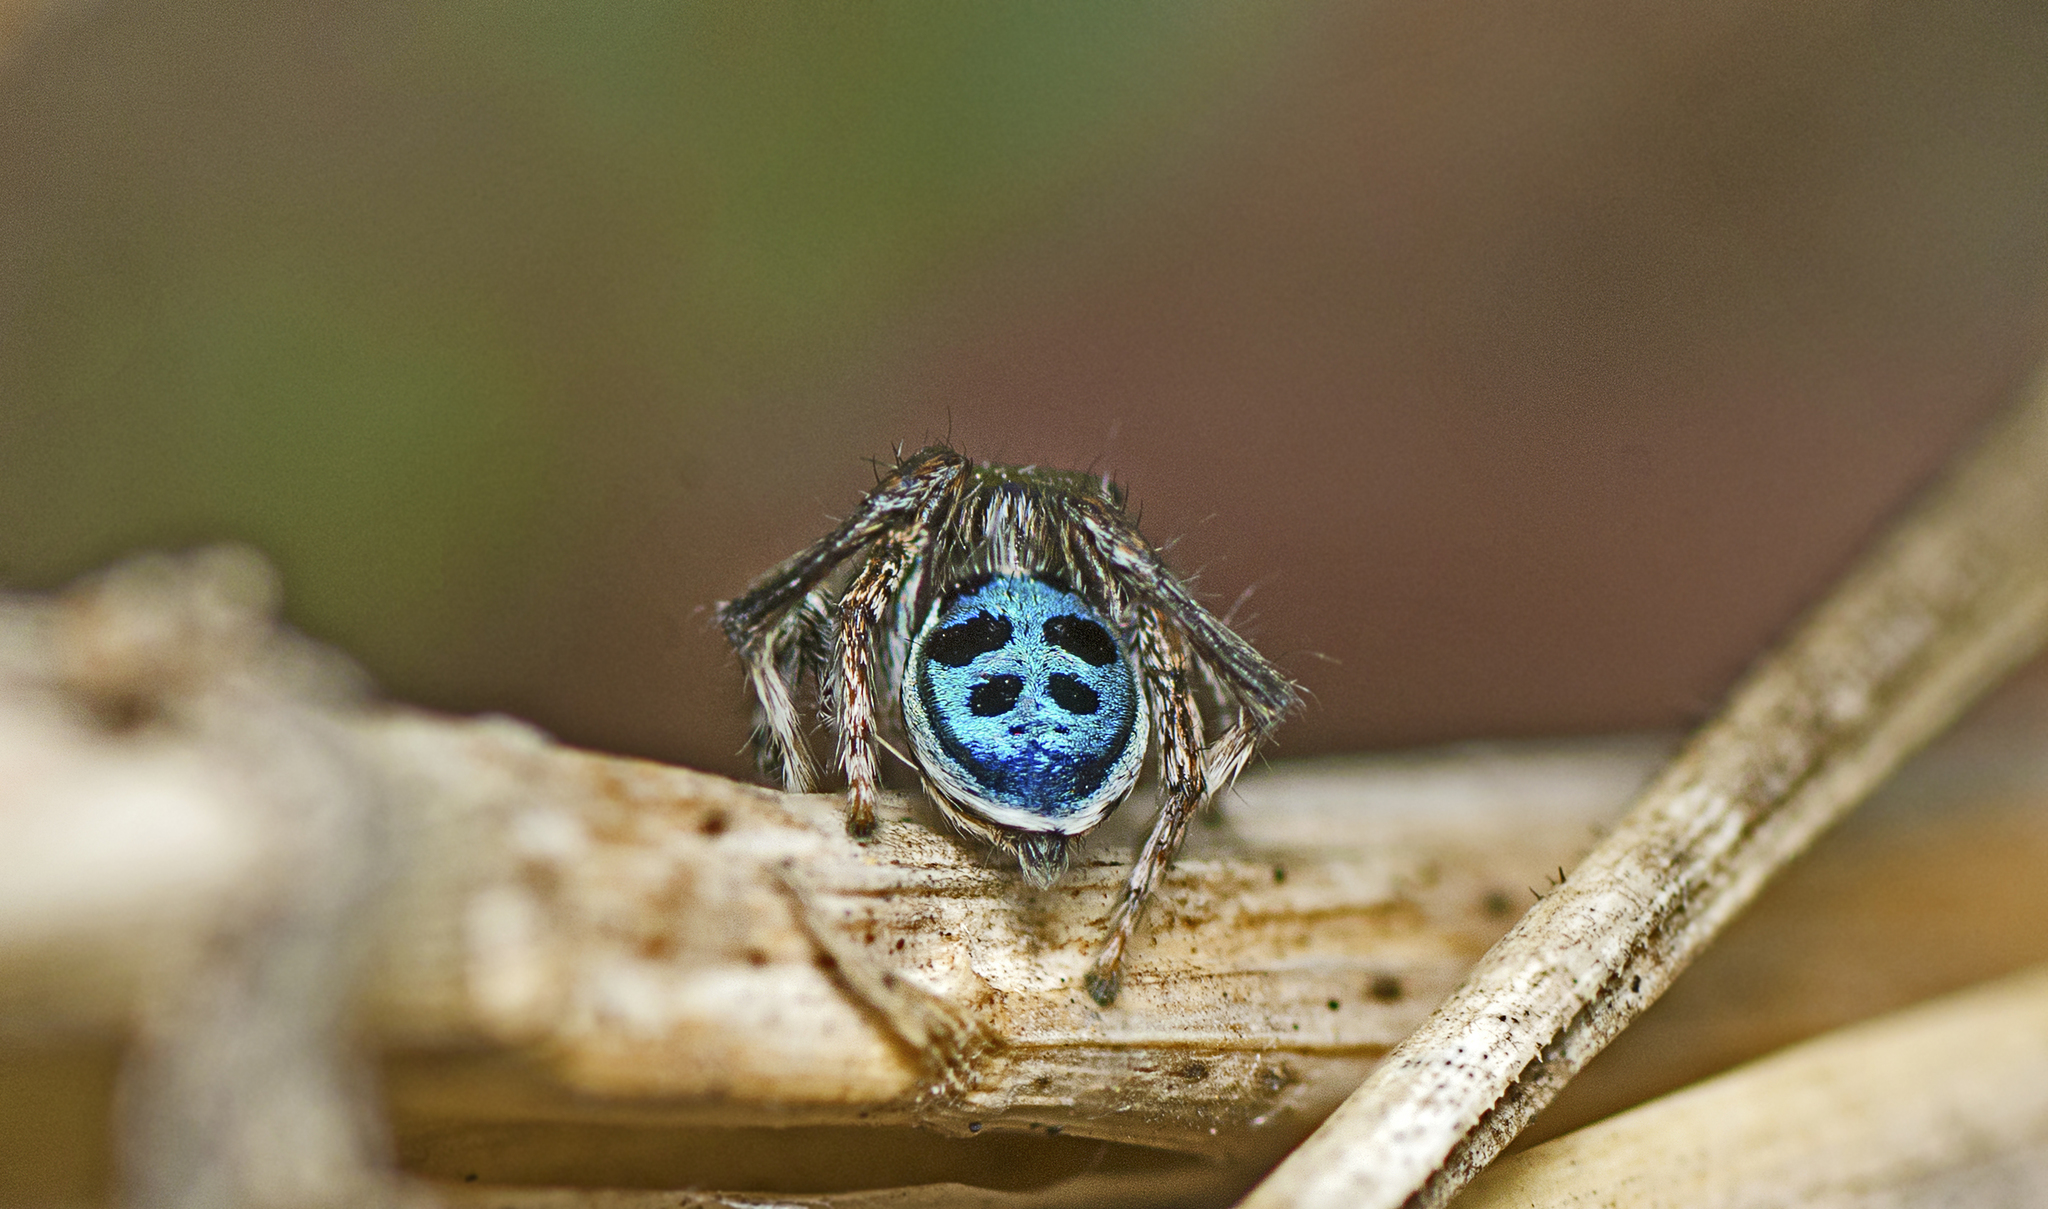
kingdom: Animalia
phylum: Arthropoda
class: Arachnida
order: Araneae
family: Salticidae
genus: Maratus
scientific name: Maratus nigromaculatus
